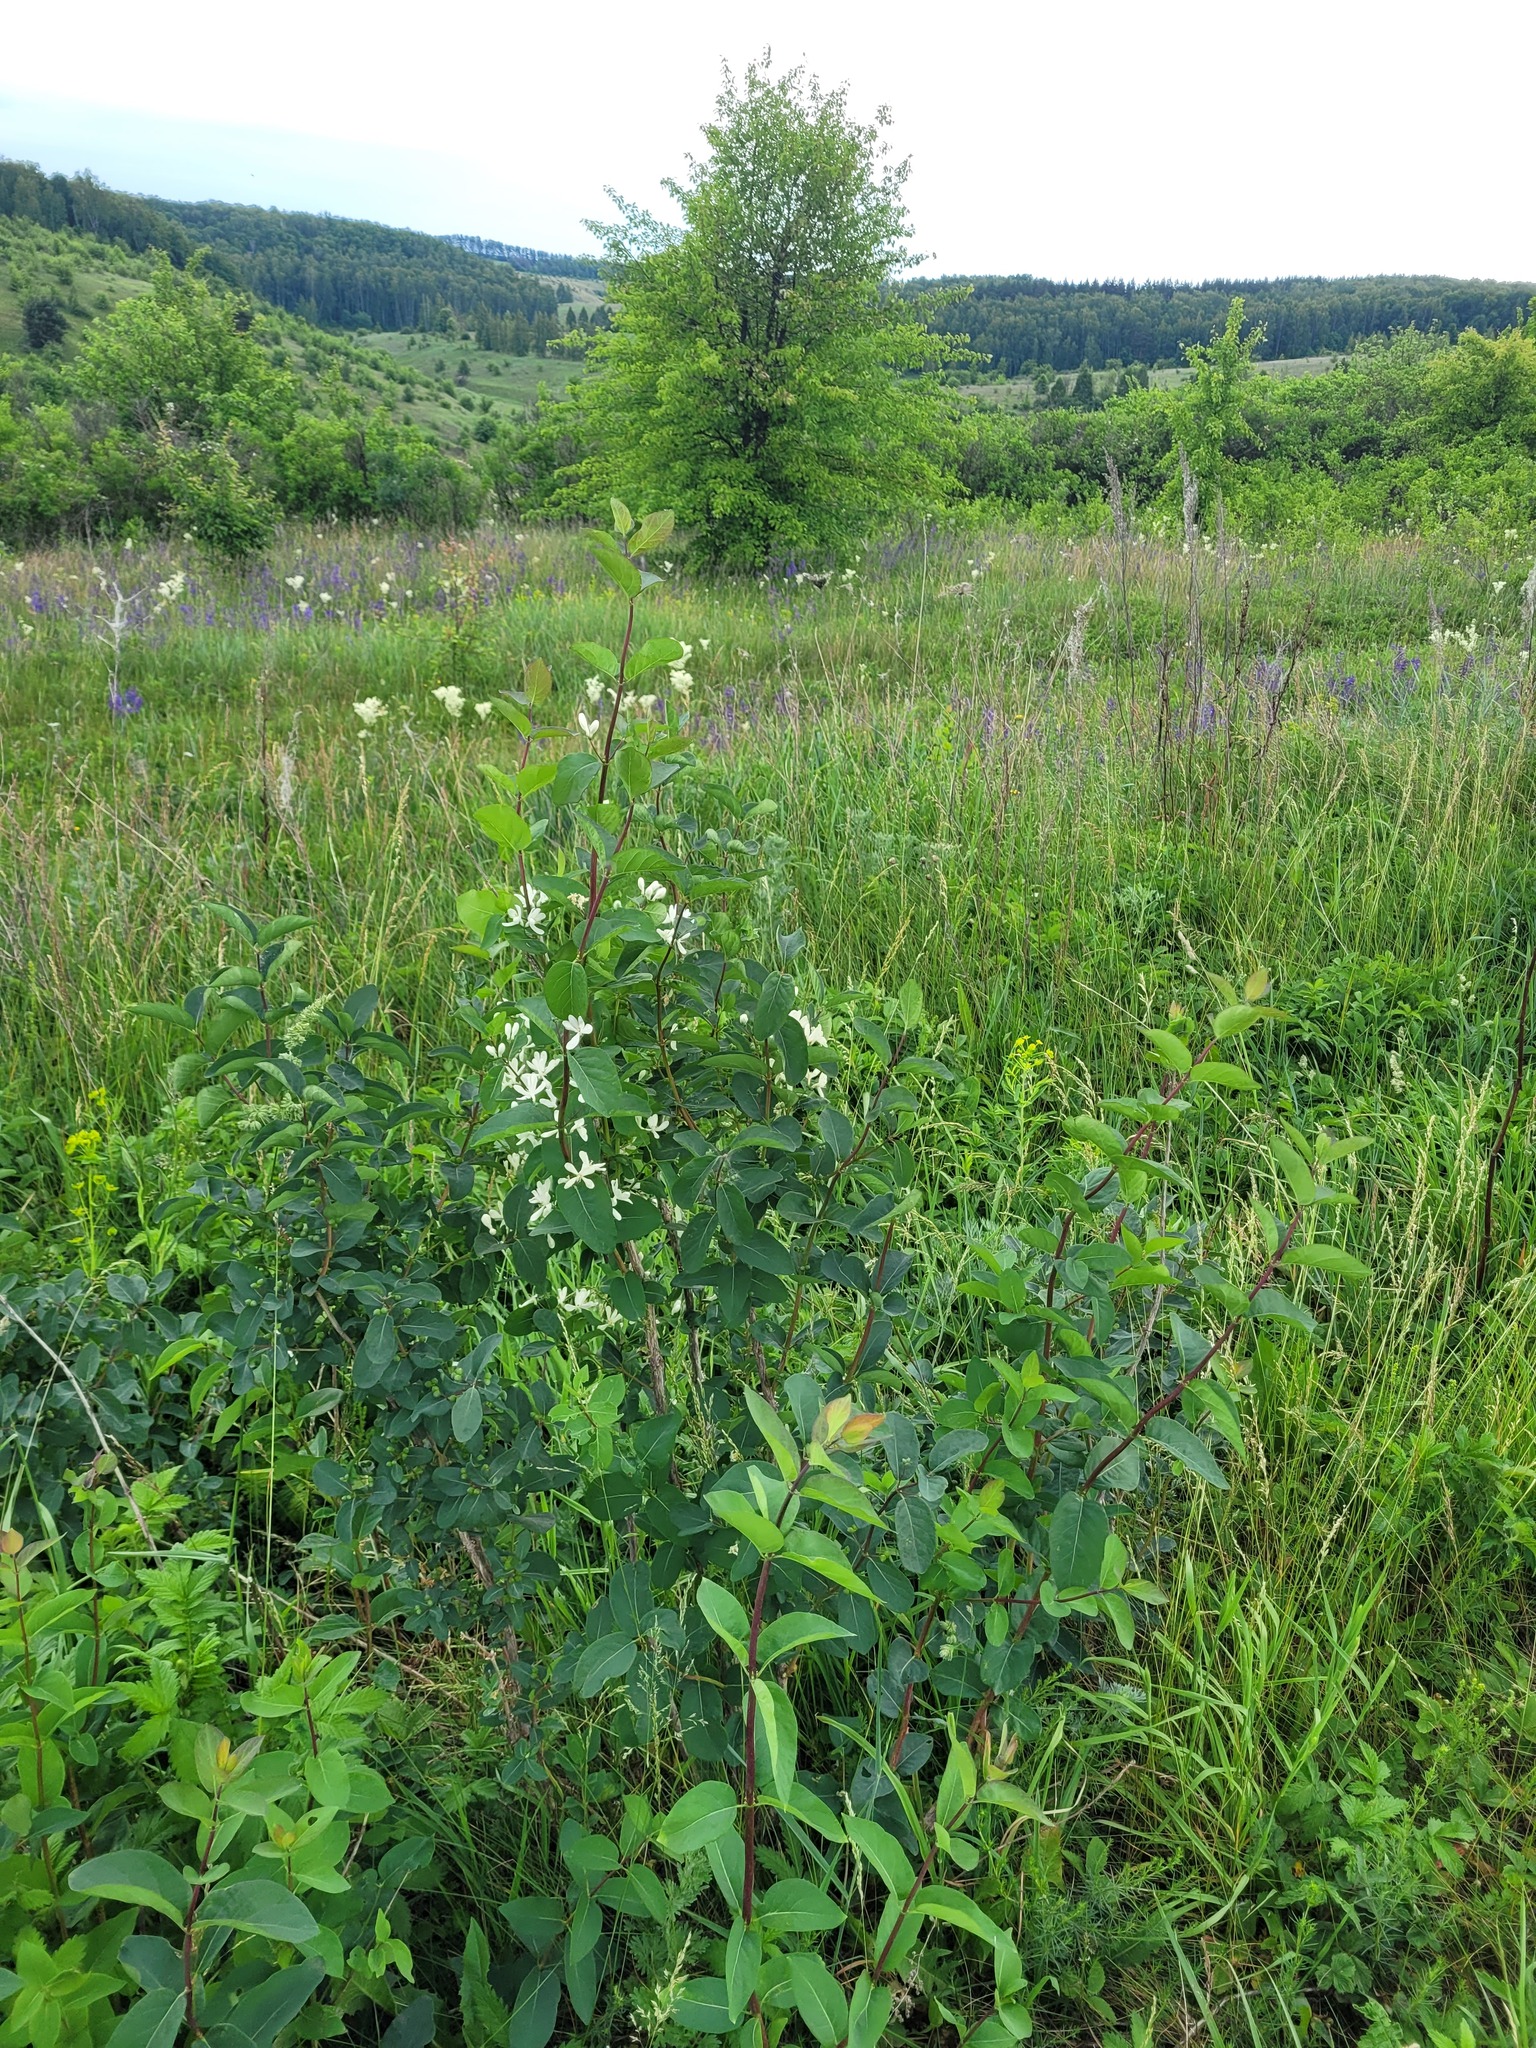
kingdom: Plantae
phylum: Tracheophyta
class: Magnoliopsida
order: Dipsacales
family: Caprifoliaceae
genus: Lonicera
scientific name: Lonicera tatarica
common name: Tatarian honeysuckle
